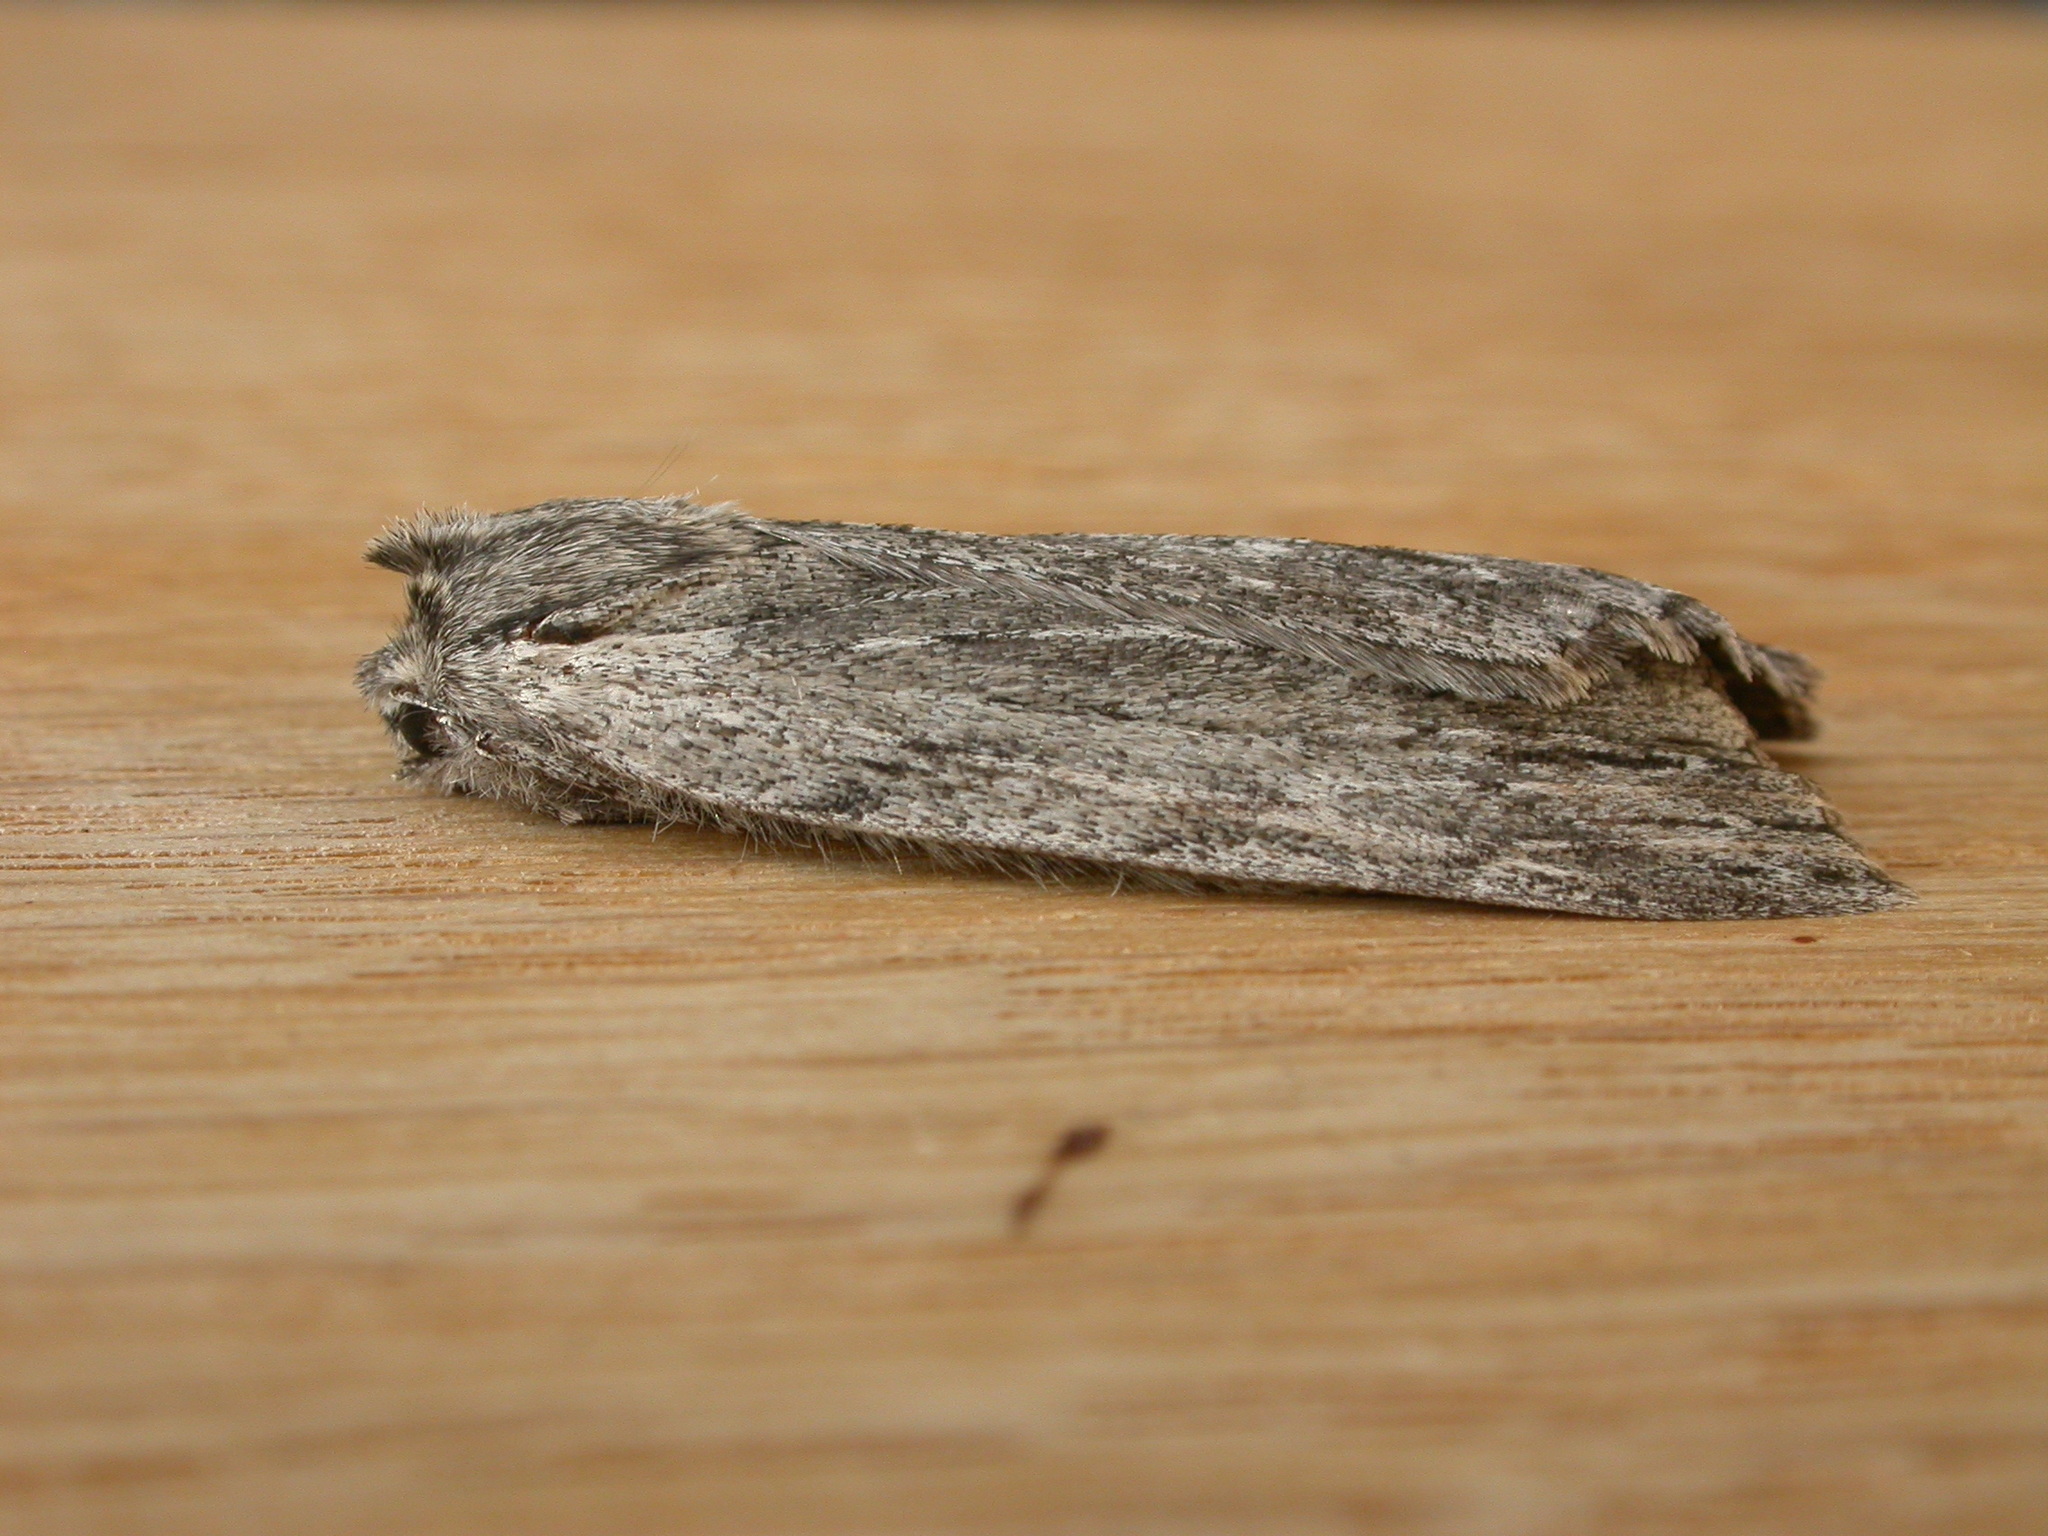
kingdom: Animalia
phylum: Arthropoda
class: Insecta
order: Lepidoptera
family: Geometridae
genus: Chlenias
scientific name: Chlenias banksiaria
